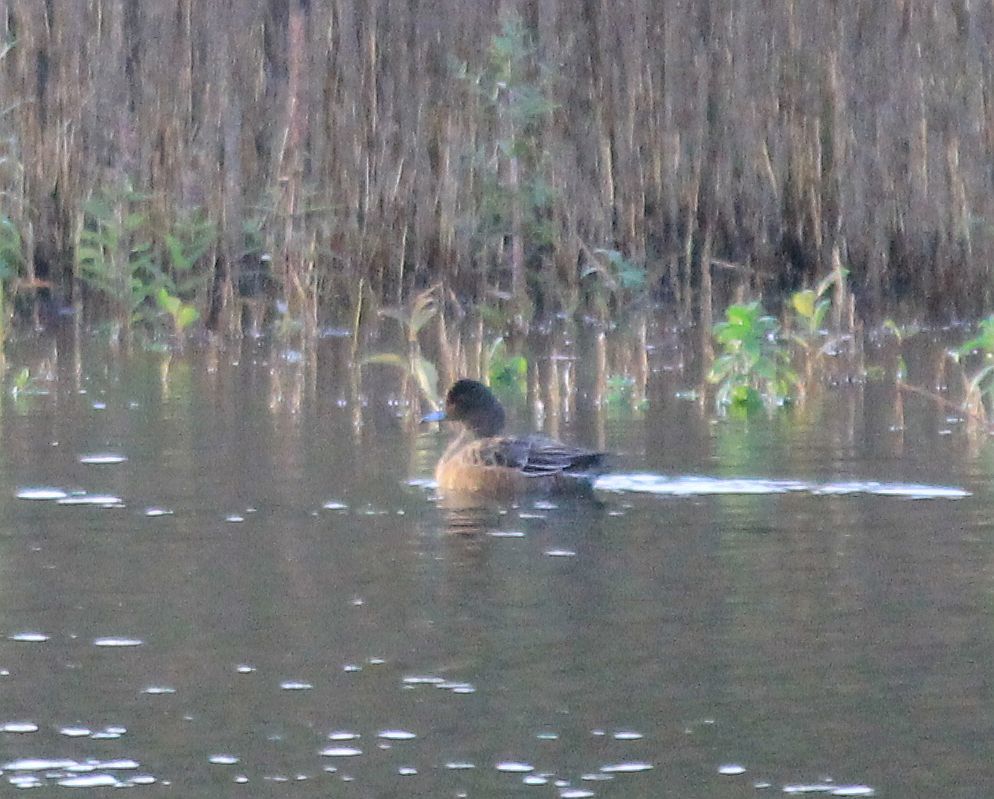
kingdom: Animalia
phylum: Chordata
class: Aves
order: Anseriformes
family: Anatidae
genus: Mareca
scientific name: Mareca penelope
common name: Eurasian wigeon
